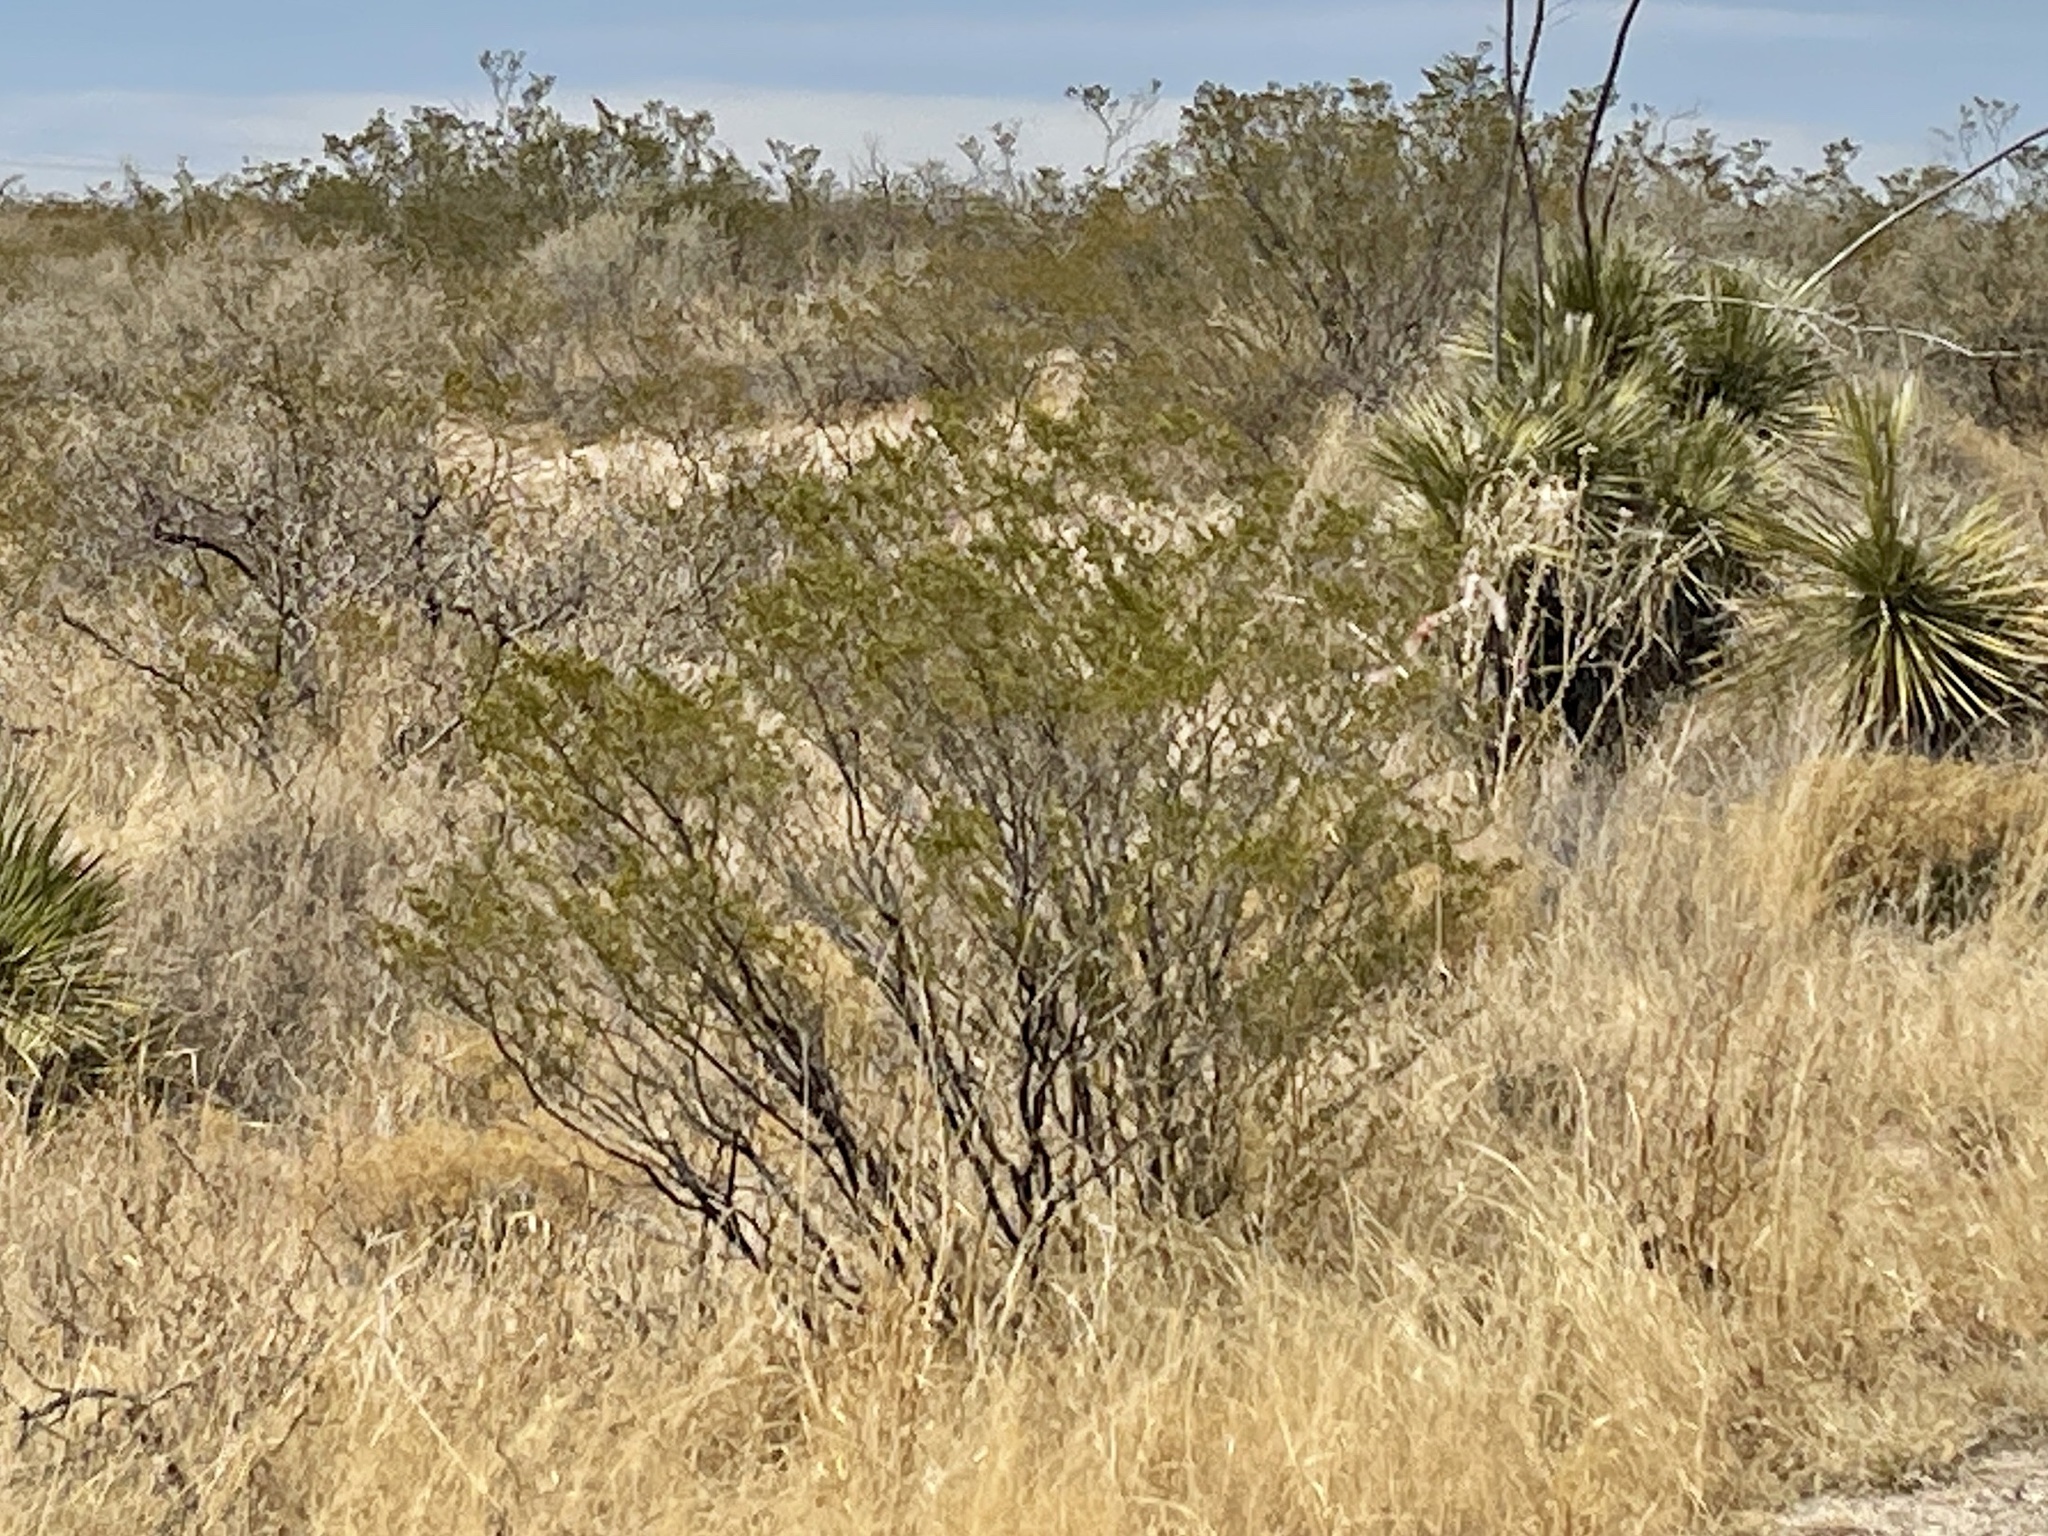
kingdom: Plantae
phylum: Tracheophyta
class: Magnoliopsida
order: Zygophyllales
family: Zygophyllaceae
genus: Larrea
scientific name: Larrea tridentata
